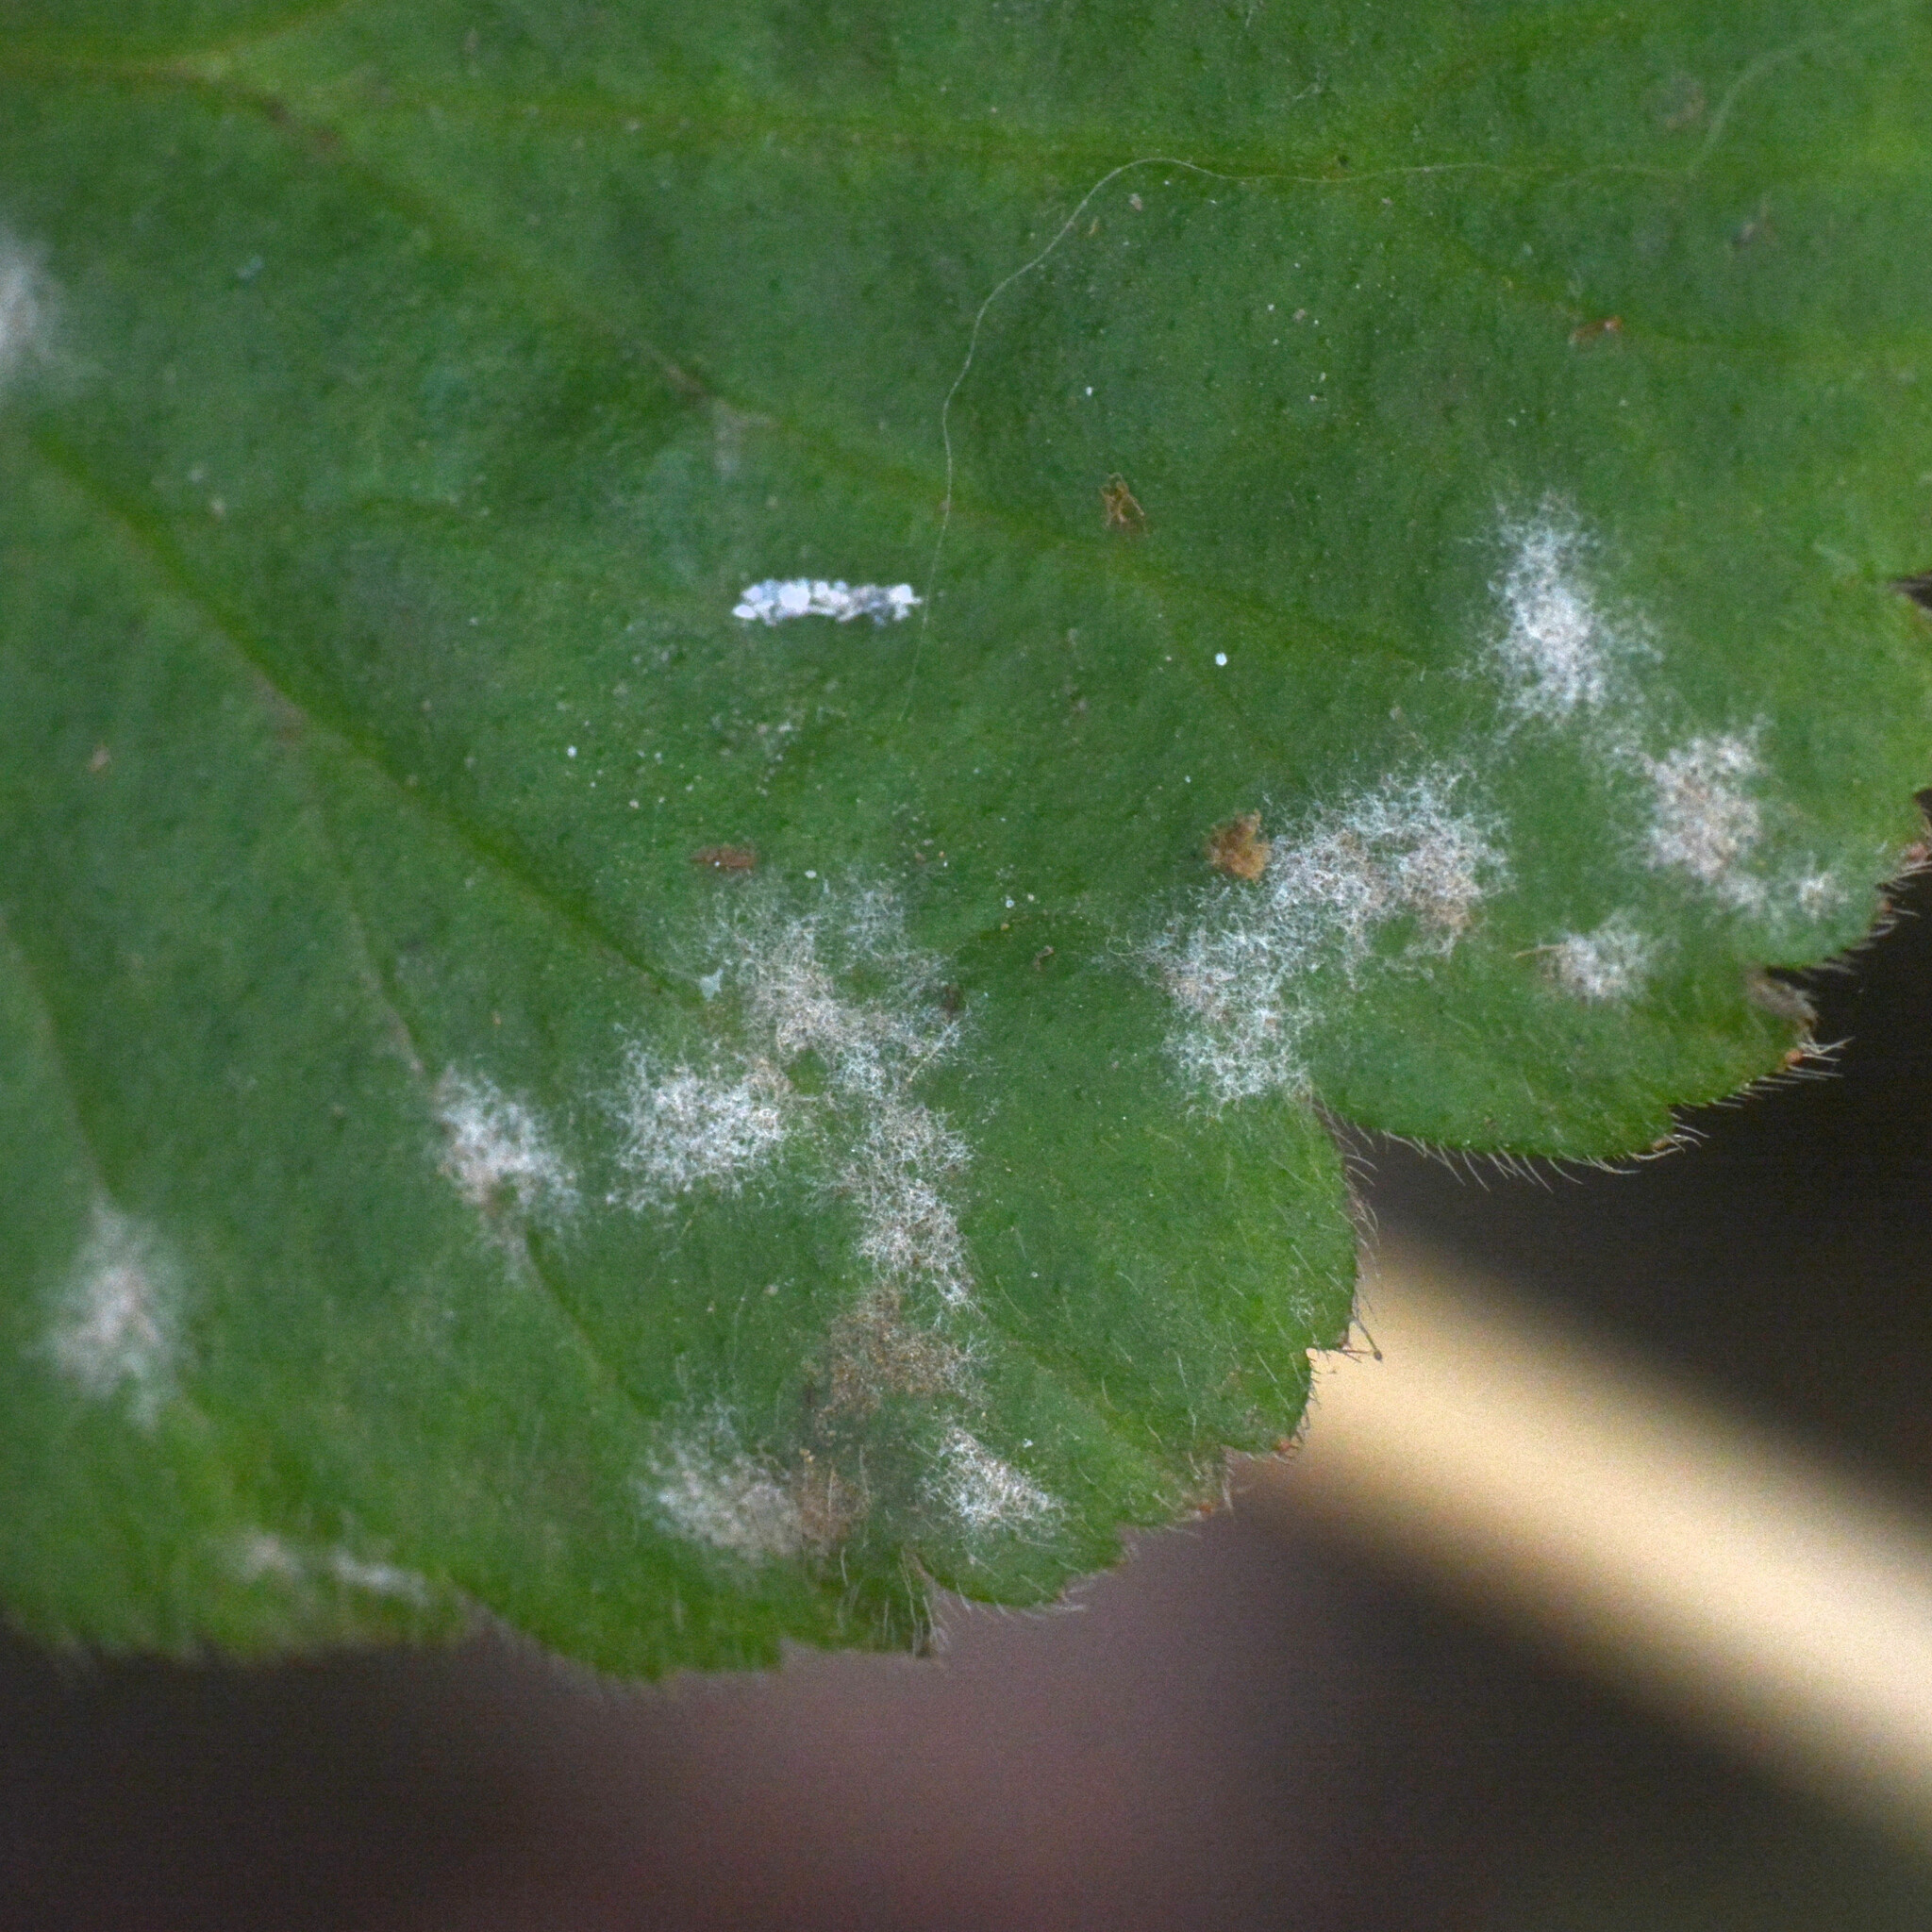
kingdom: Fungi
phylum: Ascomycota
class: Leotiomycetes
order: Helotiales
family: Erysiphaceae
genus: Podosphaera
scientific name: Podosphaera aphanis
